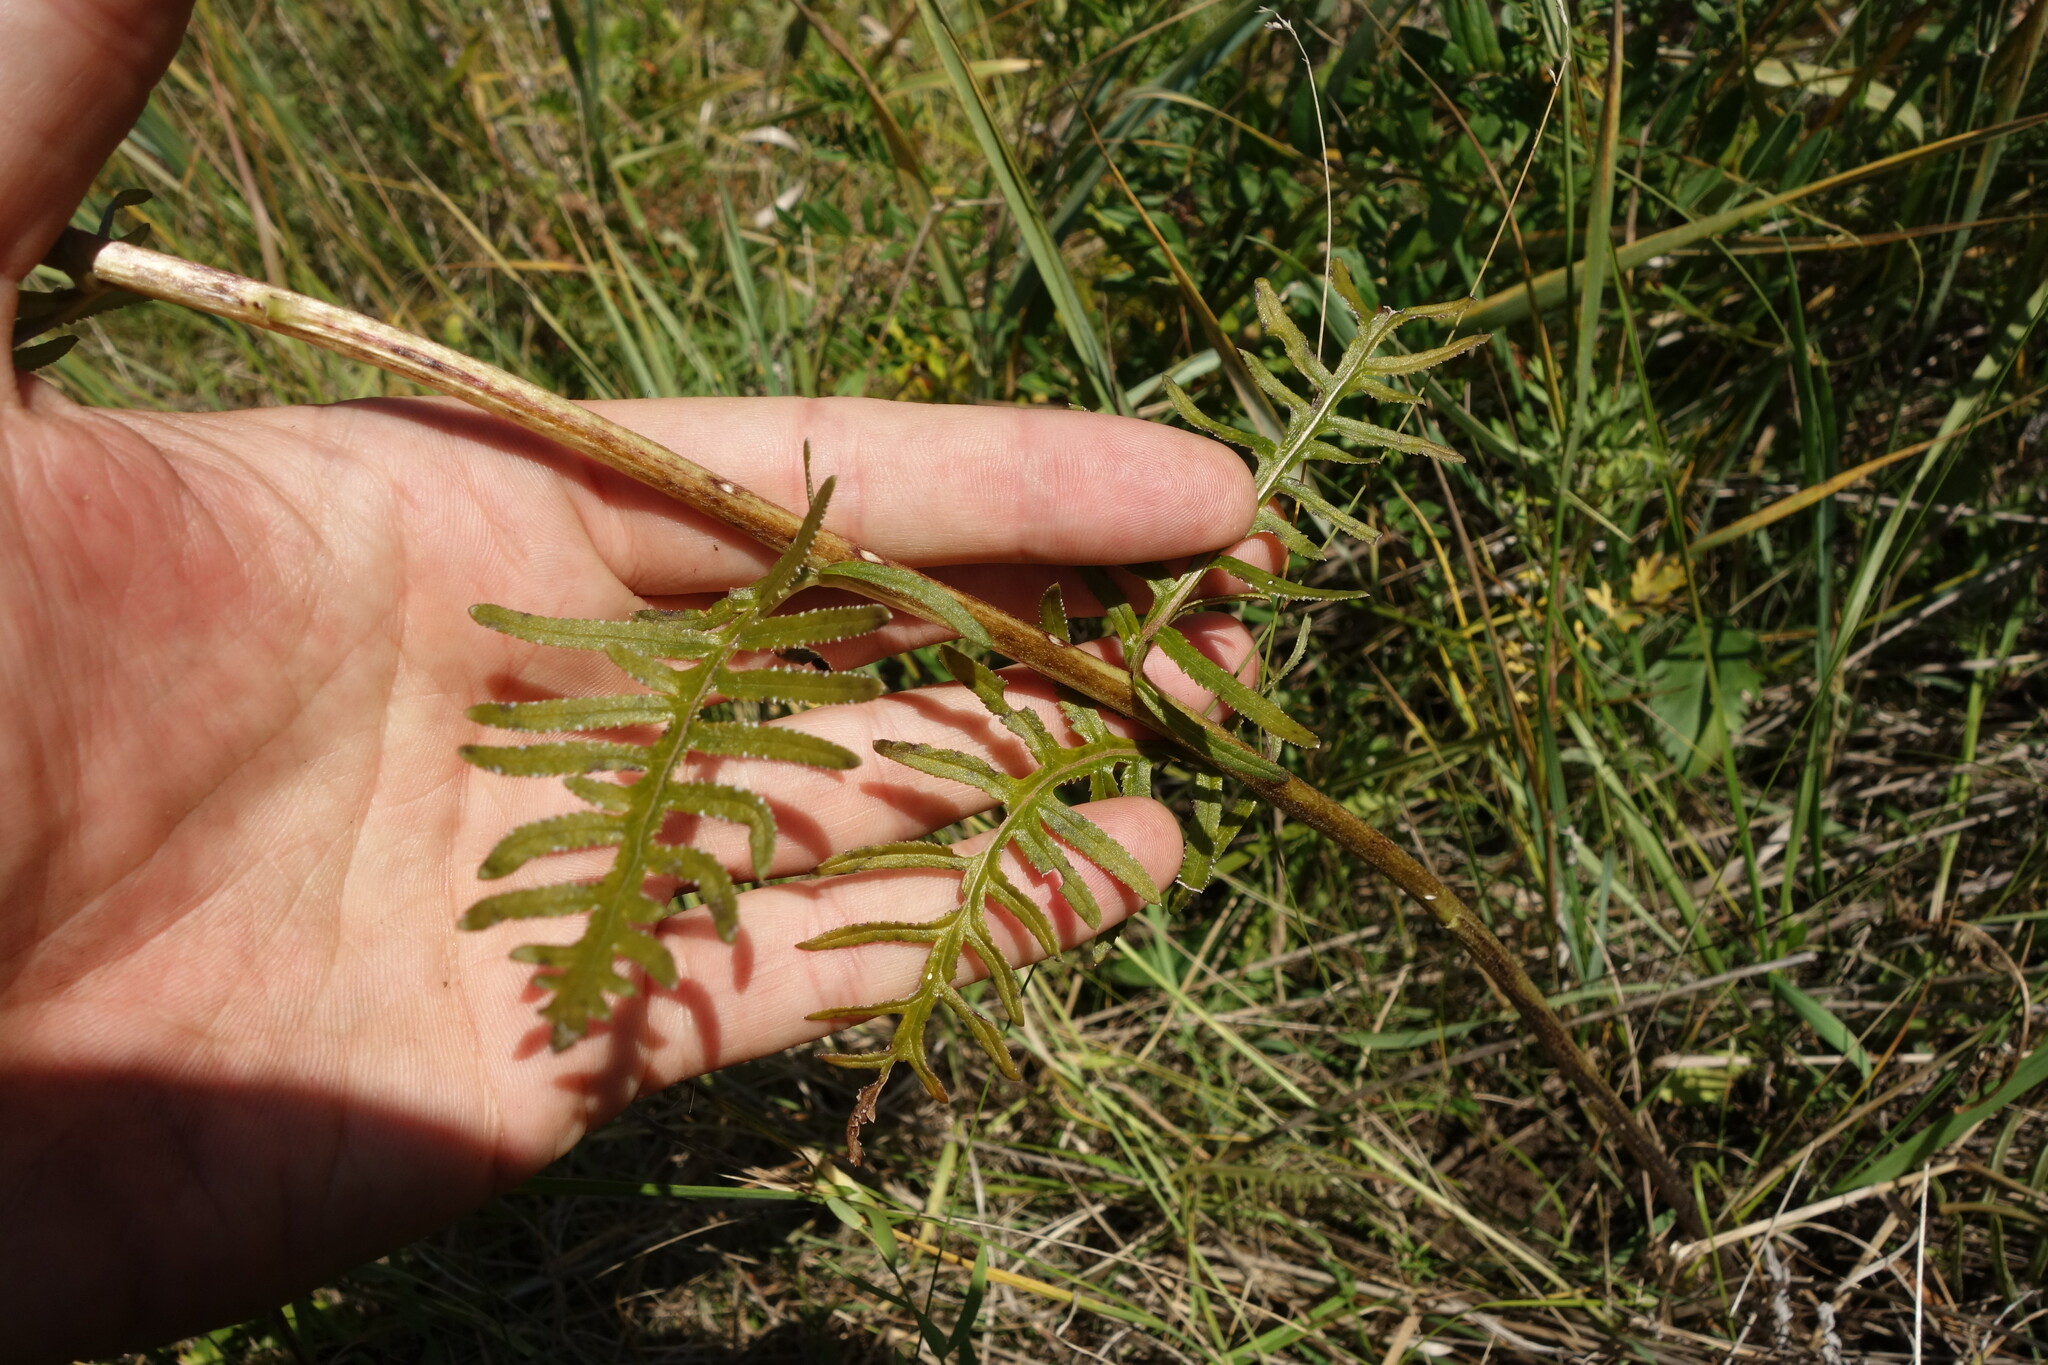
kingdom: Plantae
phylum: Tracheophyta
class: Magnoliopsida
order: Lamiales
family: Orobanchaceae
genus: Pedicularis
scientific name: Pedicularis striata
